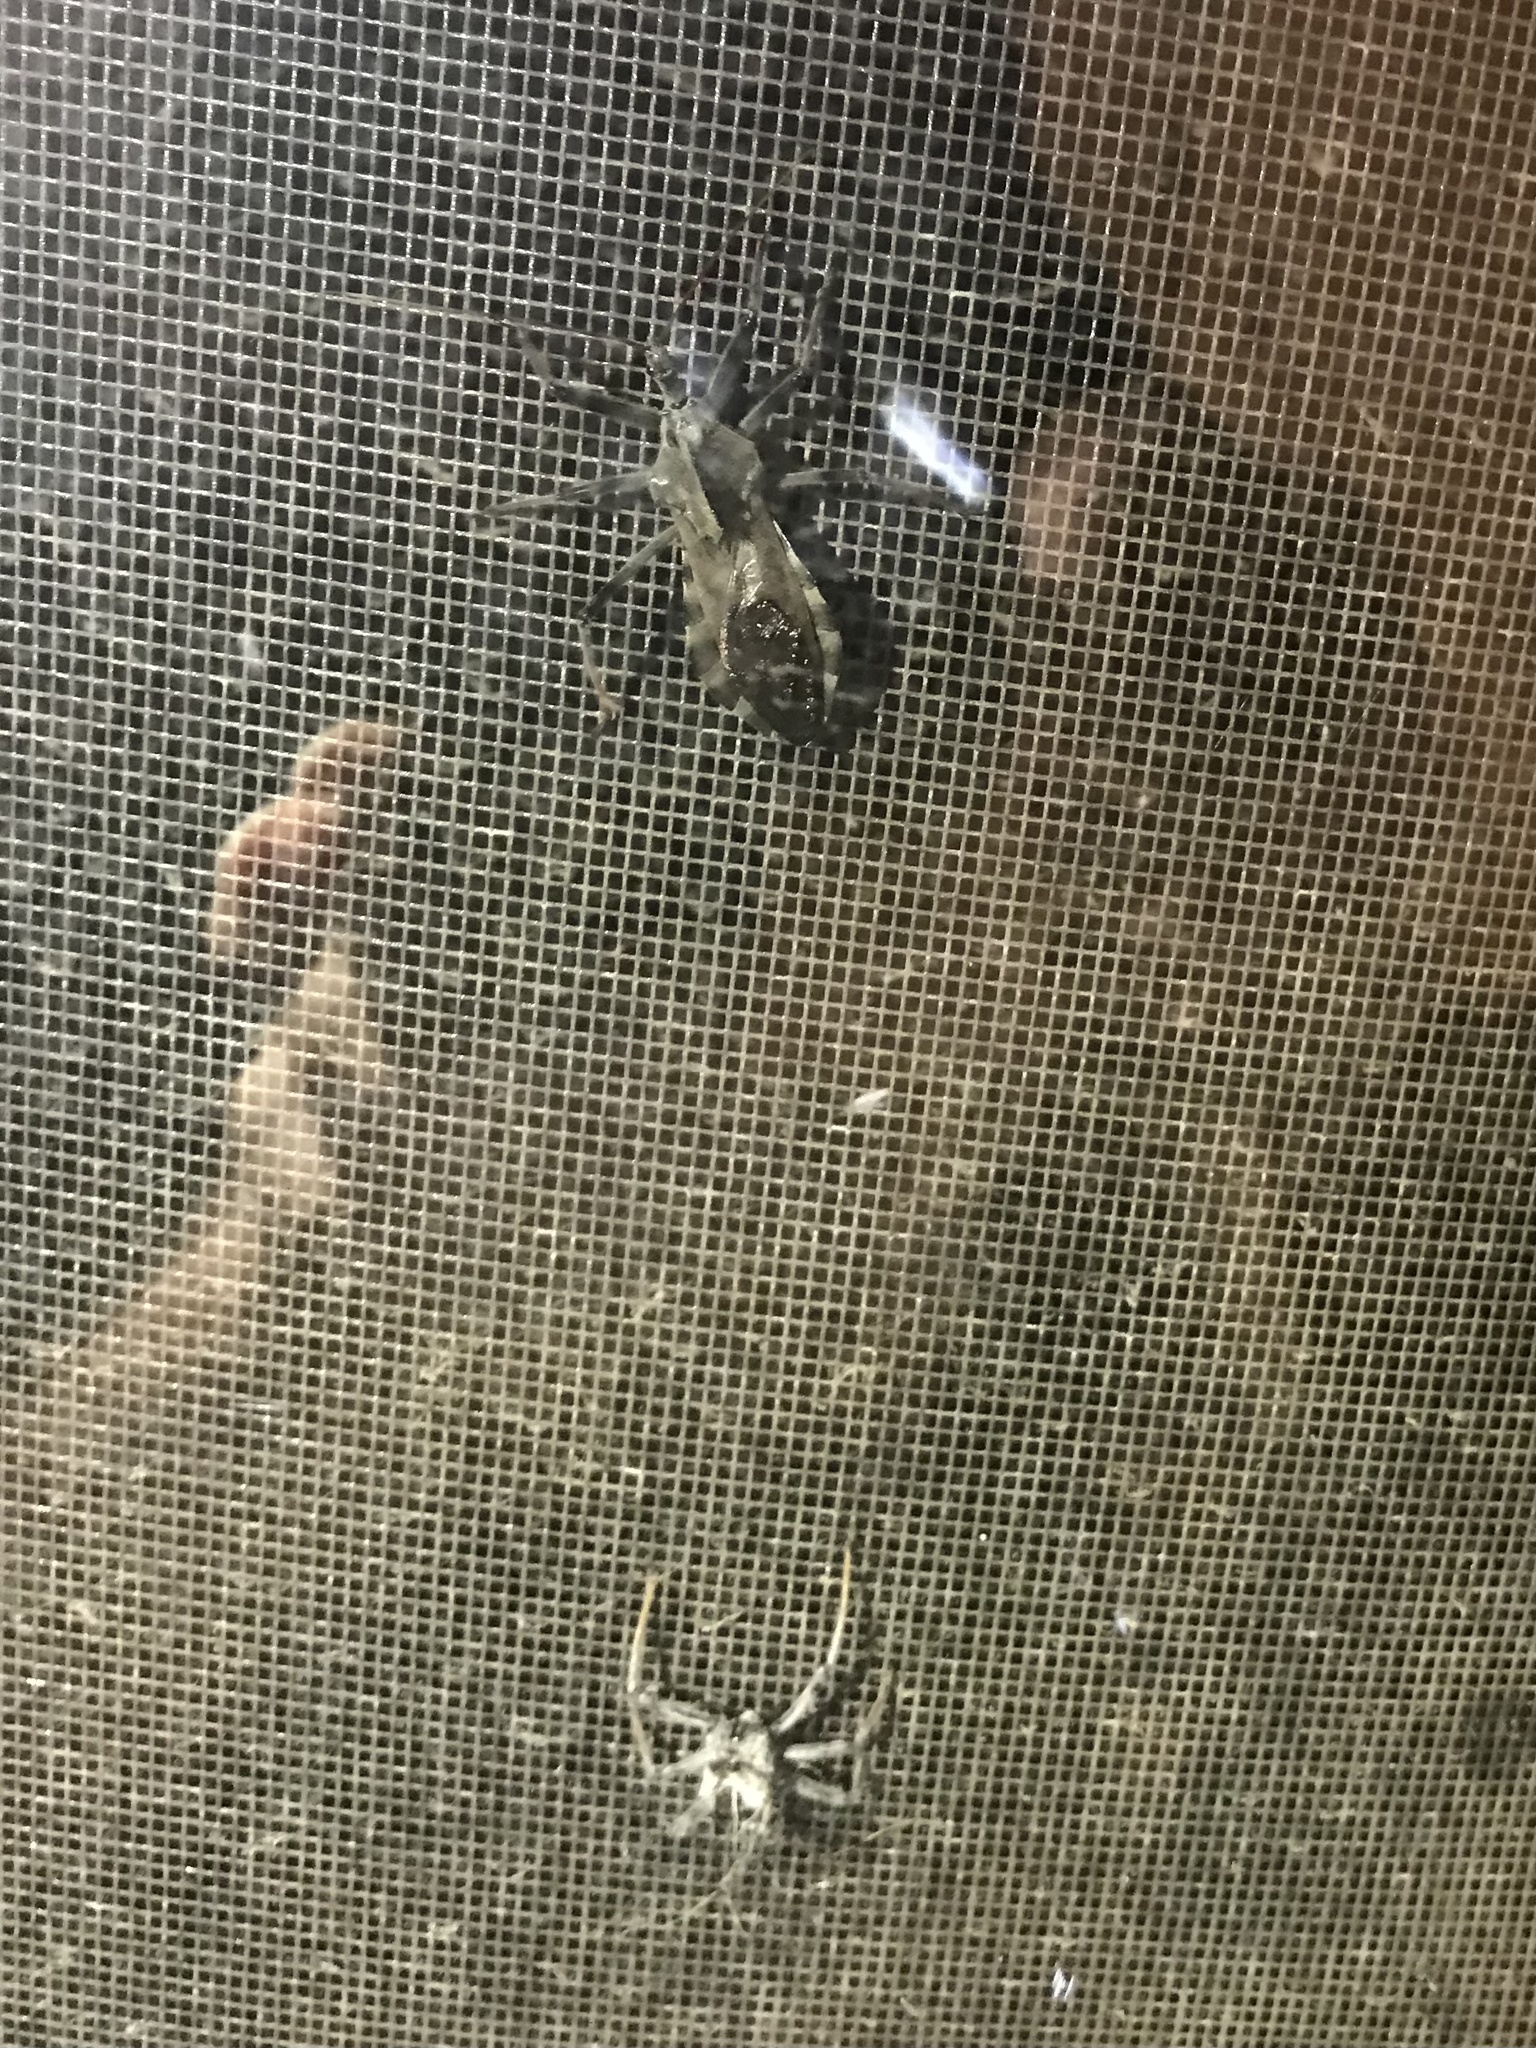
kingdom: Animalia
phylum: Arthropoda
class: Insecta
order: Hemiptera
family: Reduviidae
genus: Arilus
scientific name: Arilus cristatus
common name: North american wheel bug
